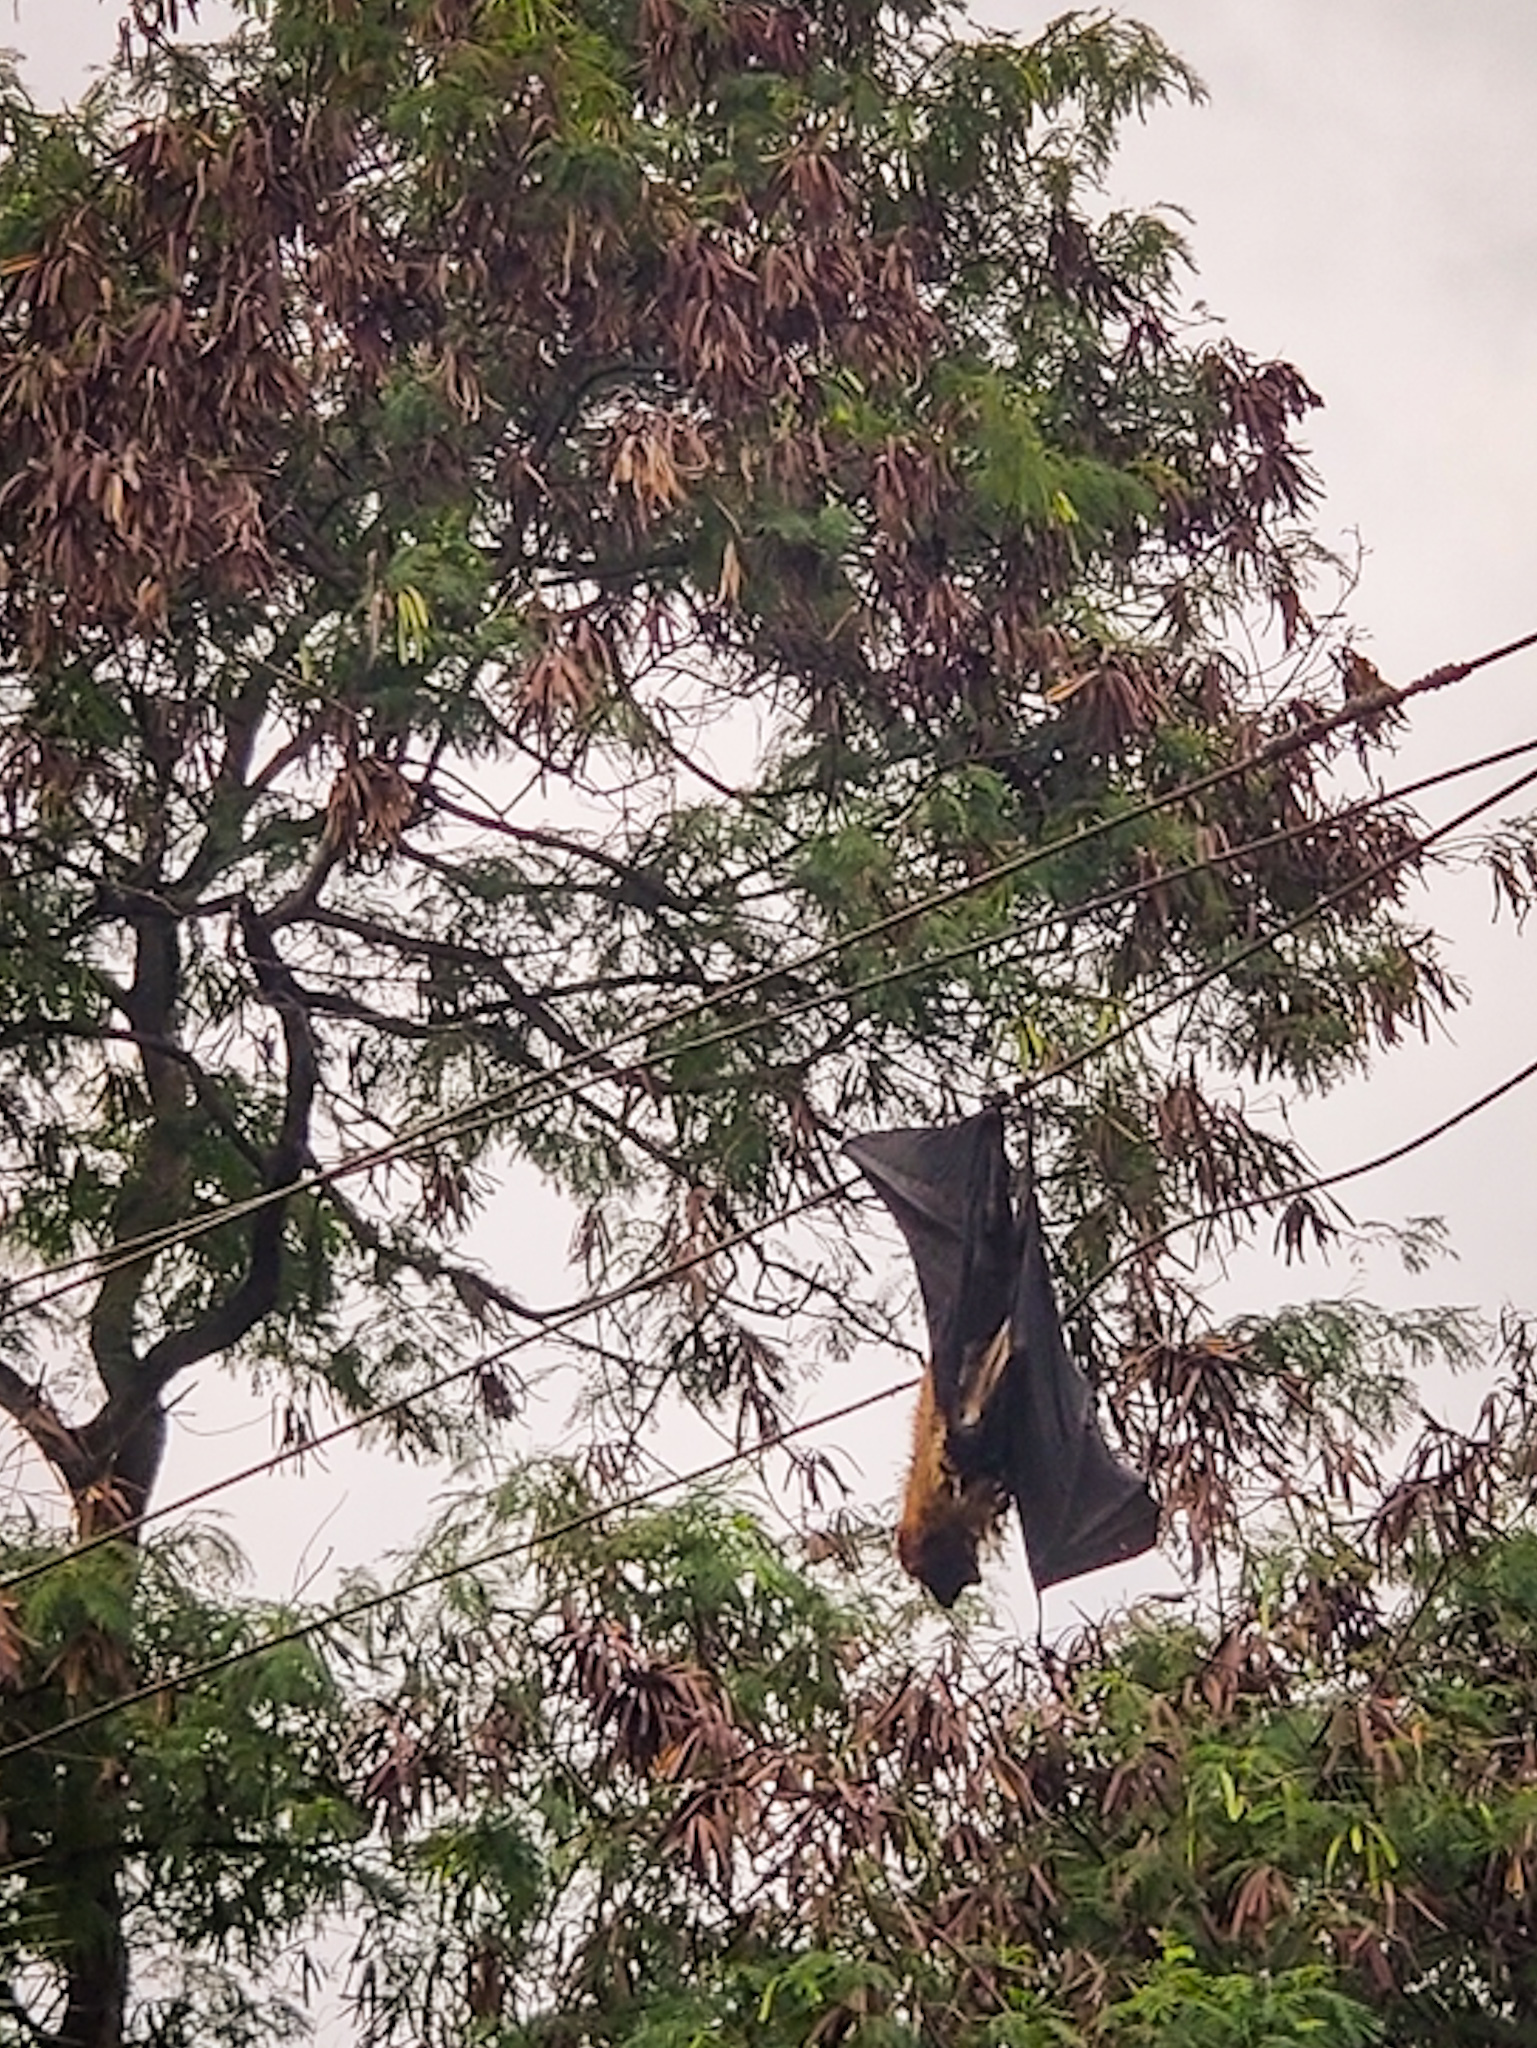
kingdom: Animalia
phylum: Chordata
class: Mammalia
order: Chiroptera
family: Pteropodidae
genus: Pteropus
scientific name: Pteropus vampyrus
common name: Large flying fox
